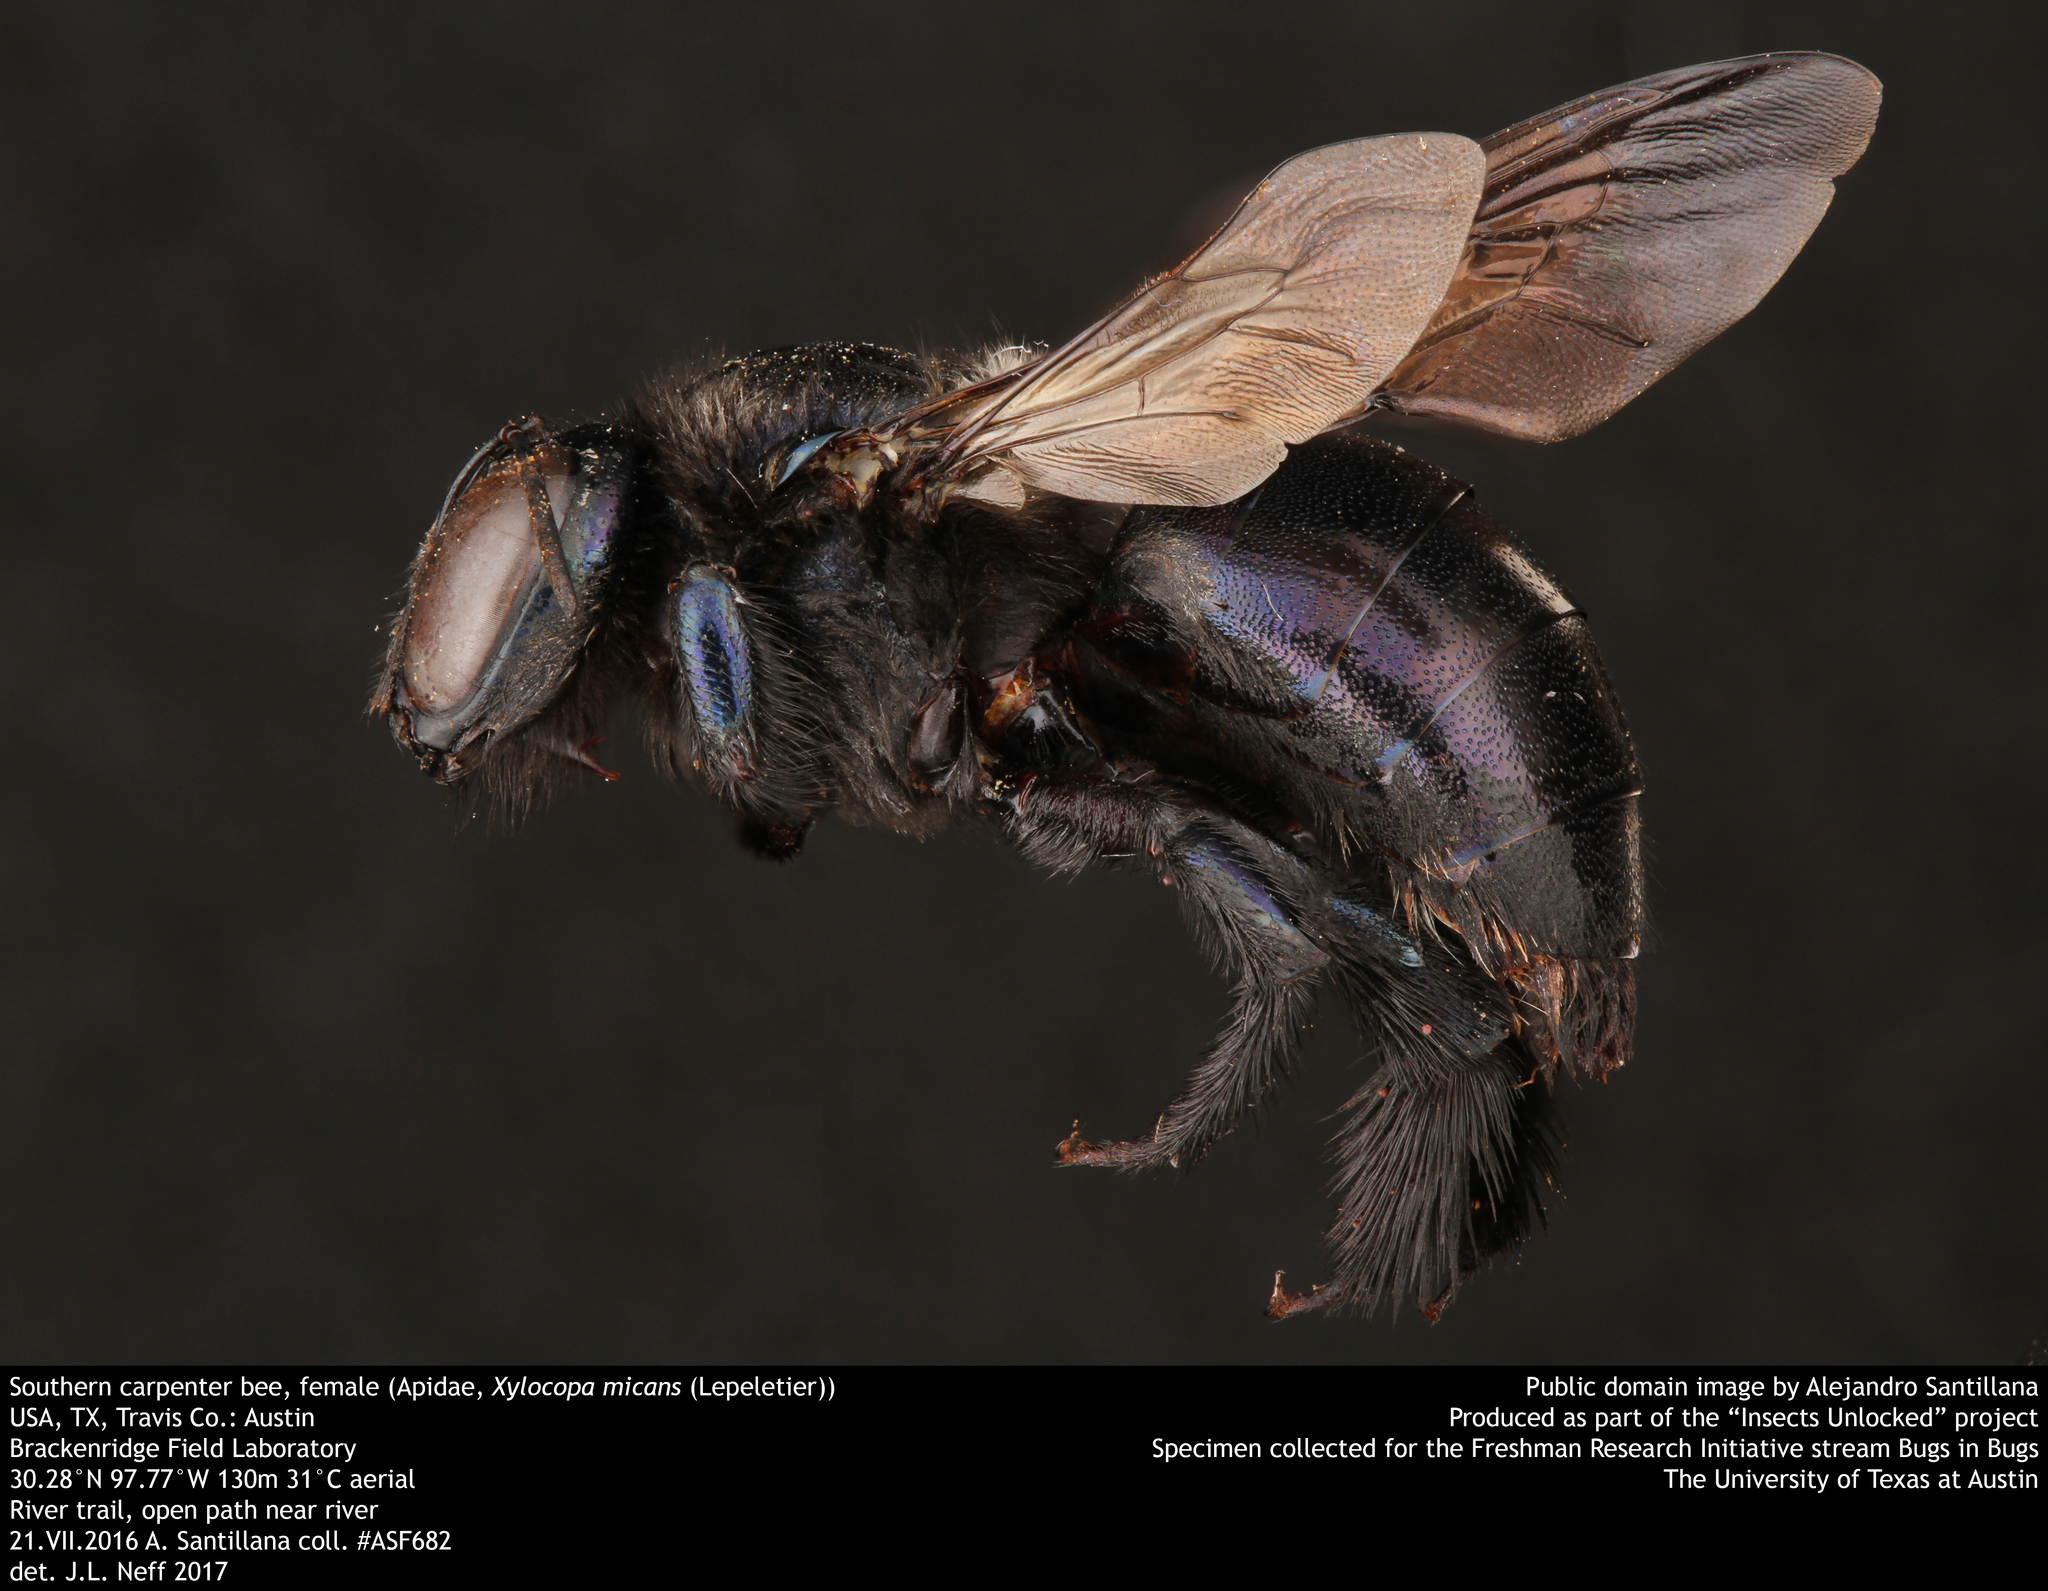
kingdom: Animalia
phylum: Arthropoda
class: Insecta
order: Hymenoptera
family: Apidae
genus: Xylocopa
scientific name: Xylocopa micans
